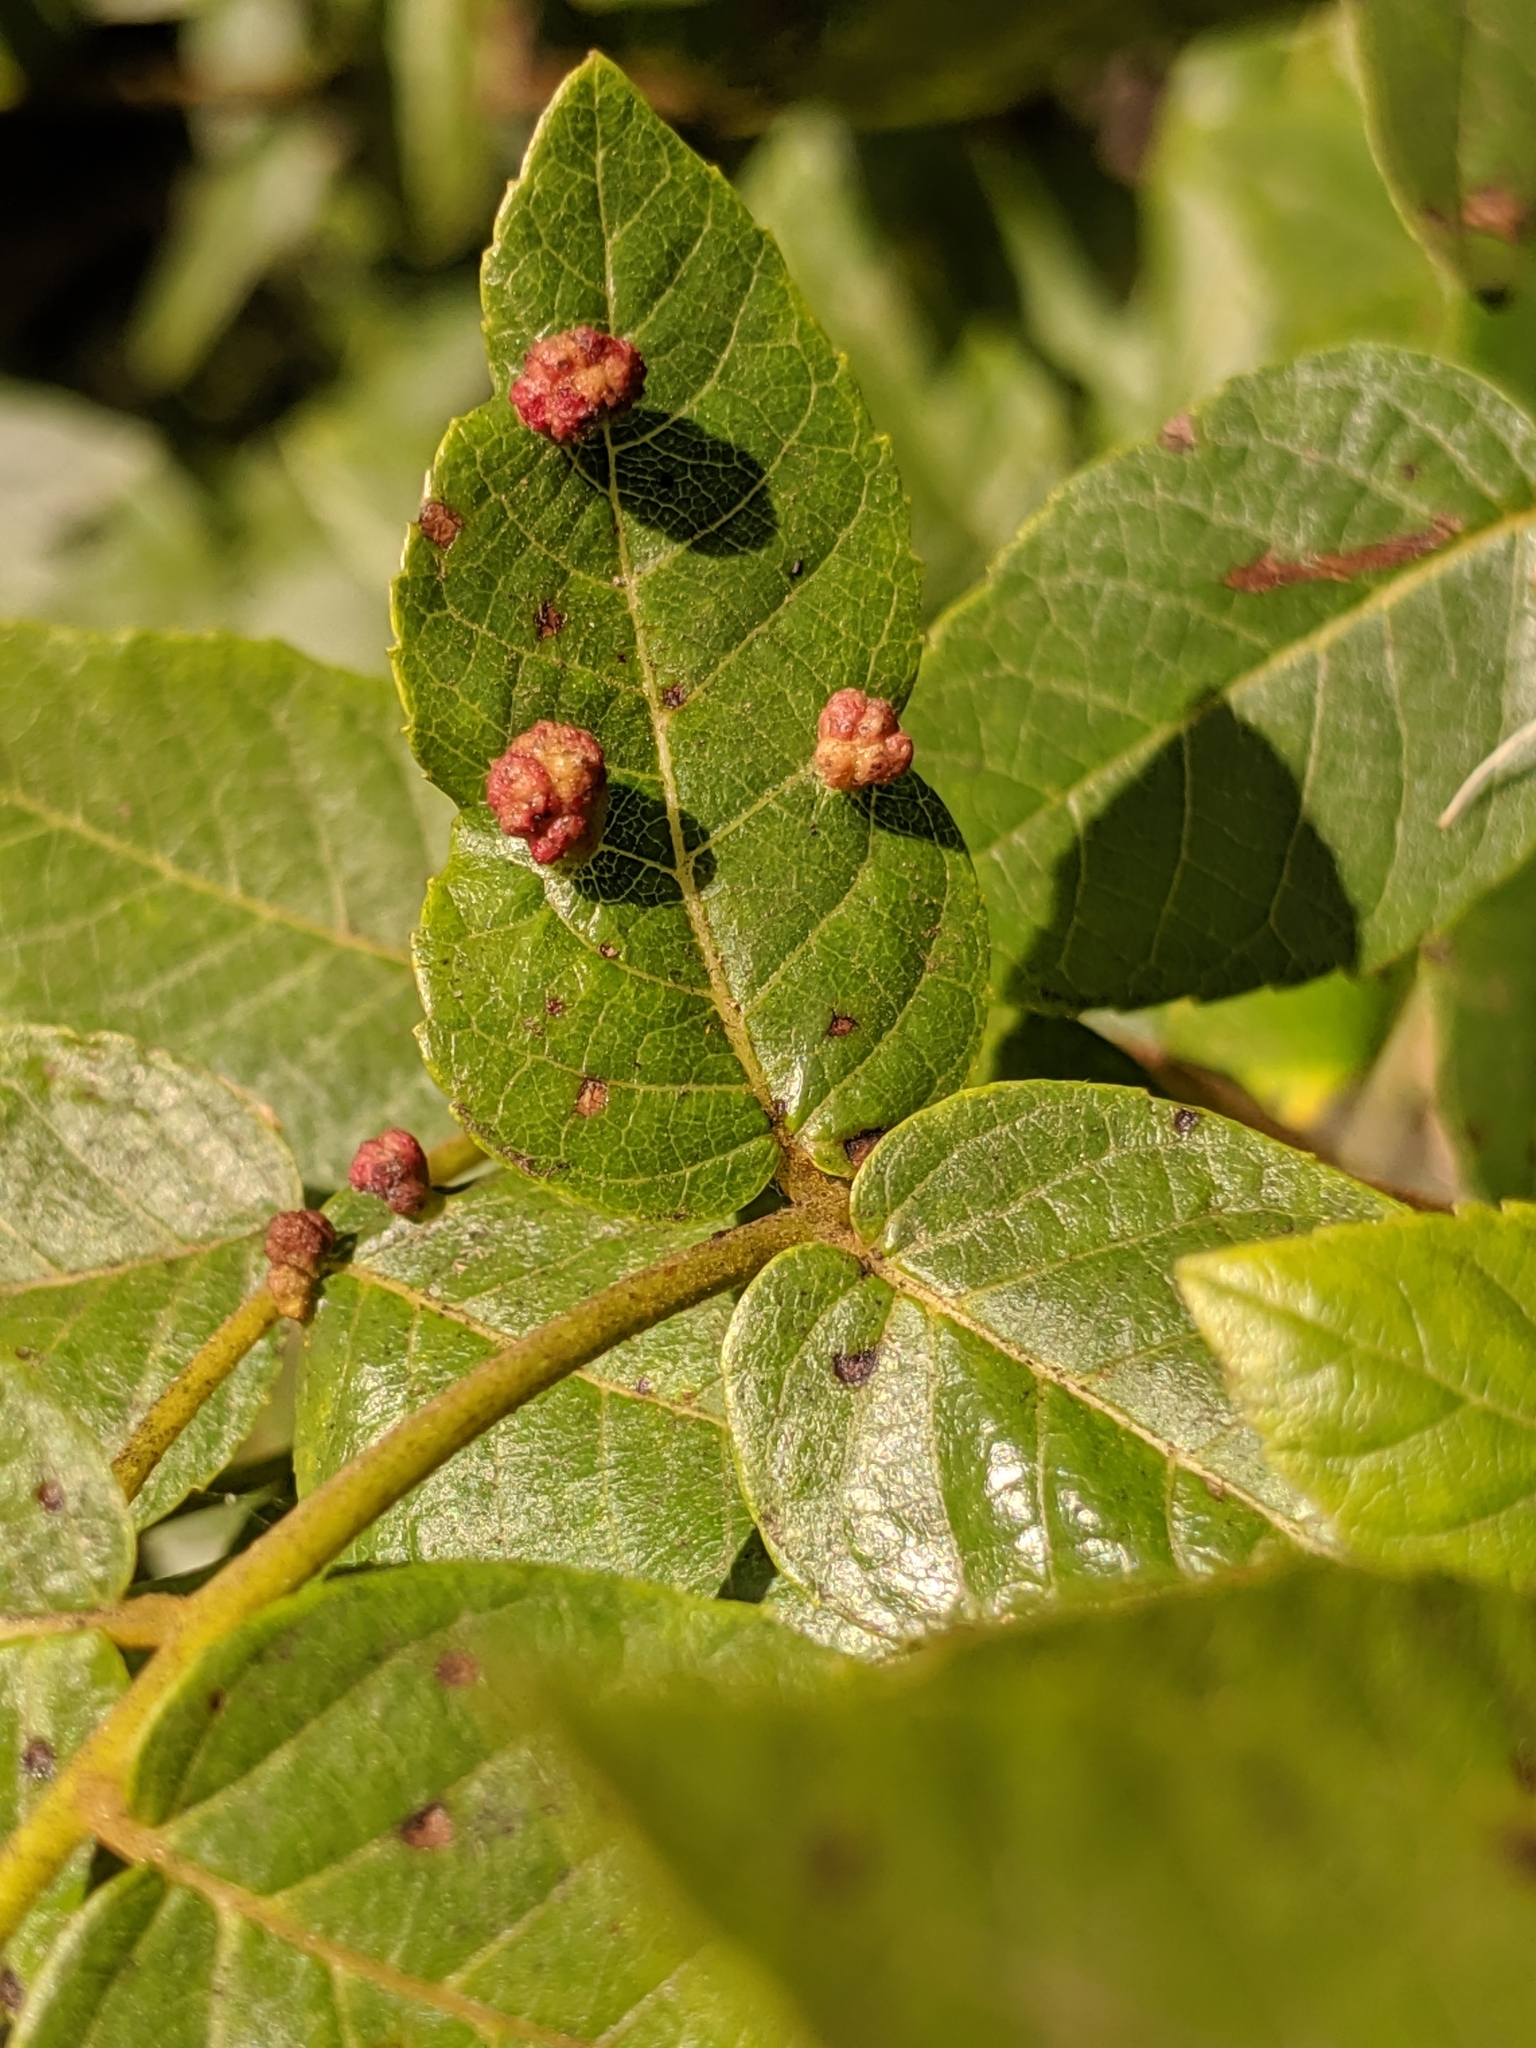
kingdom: Animalia
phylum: Arthropoda
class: Arachnida
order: Trombidiformes
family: Eriophyidae
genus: Aceria
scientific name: Aceria brachytarsus
